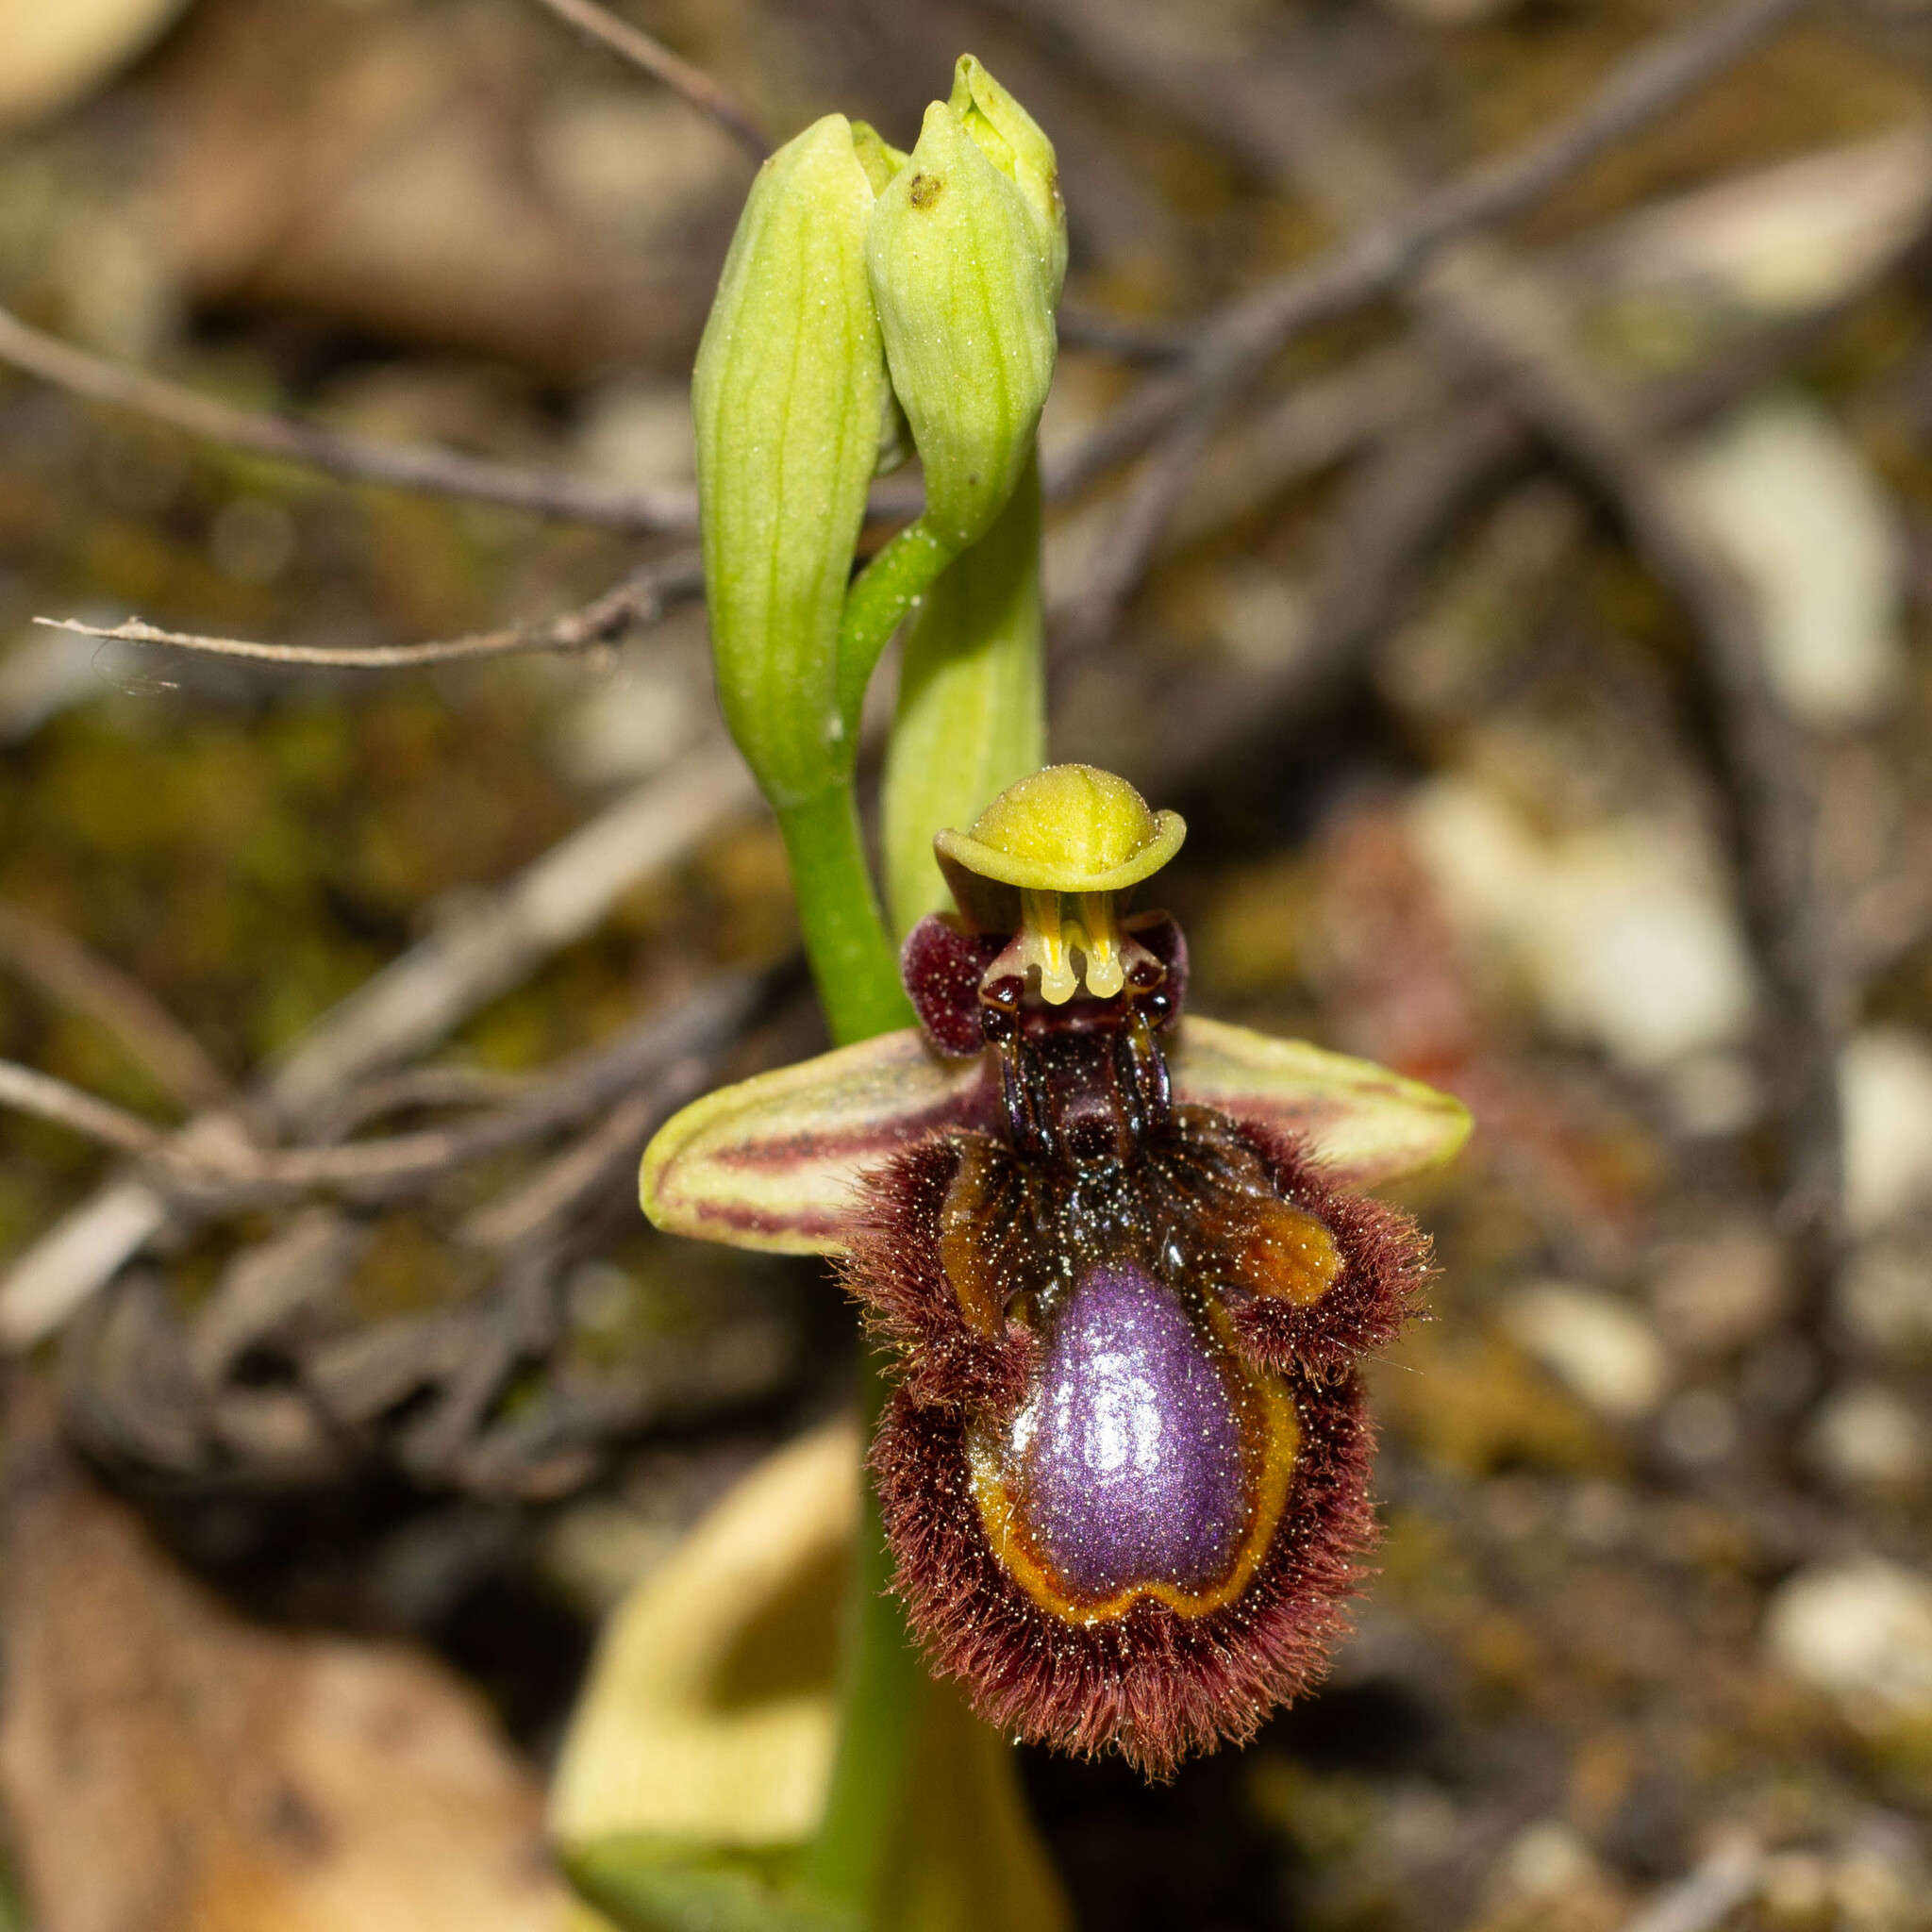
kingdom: Plantae
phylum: Tracheophyta
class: Liliopsida
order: Asparagales
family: Orchidaceae
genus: Ophrys
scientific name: Ophrys speculum
